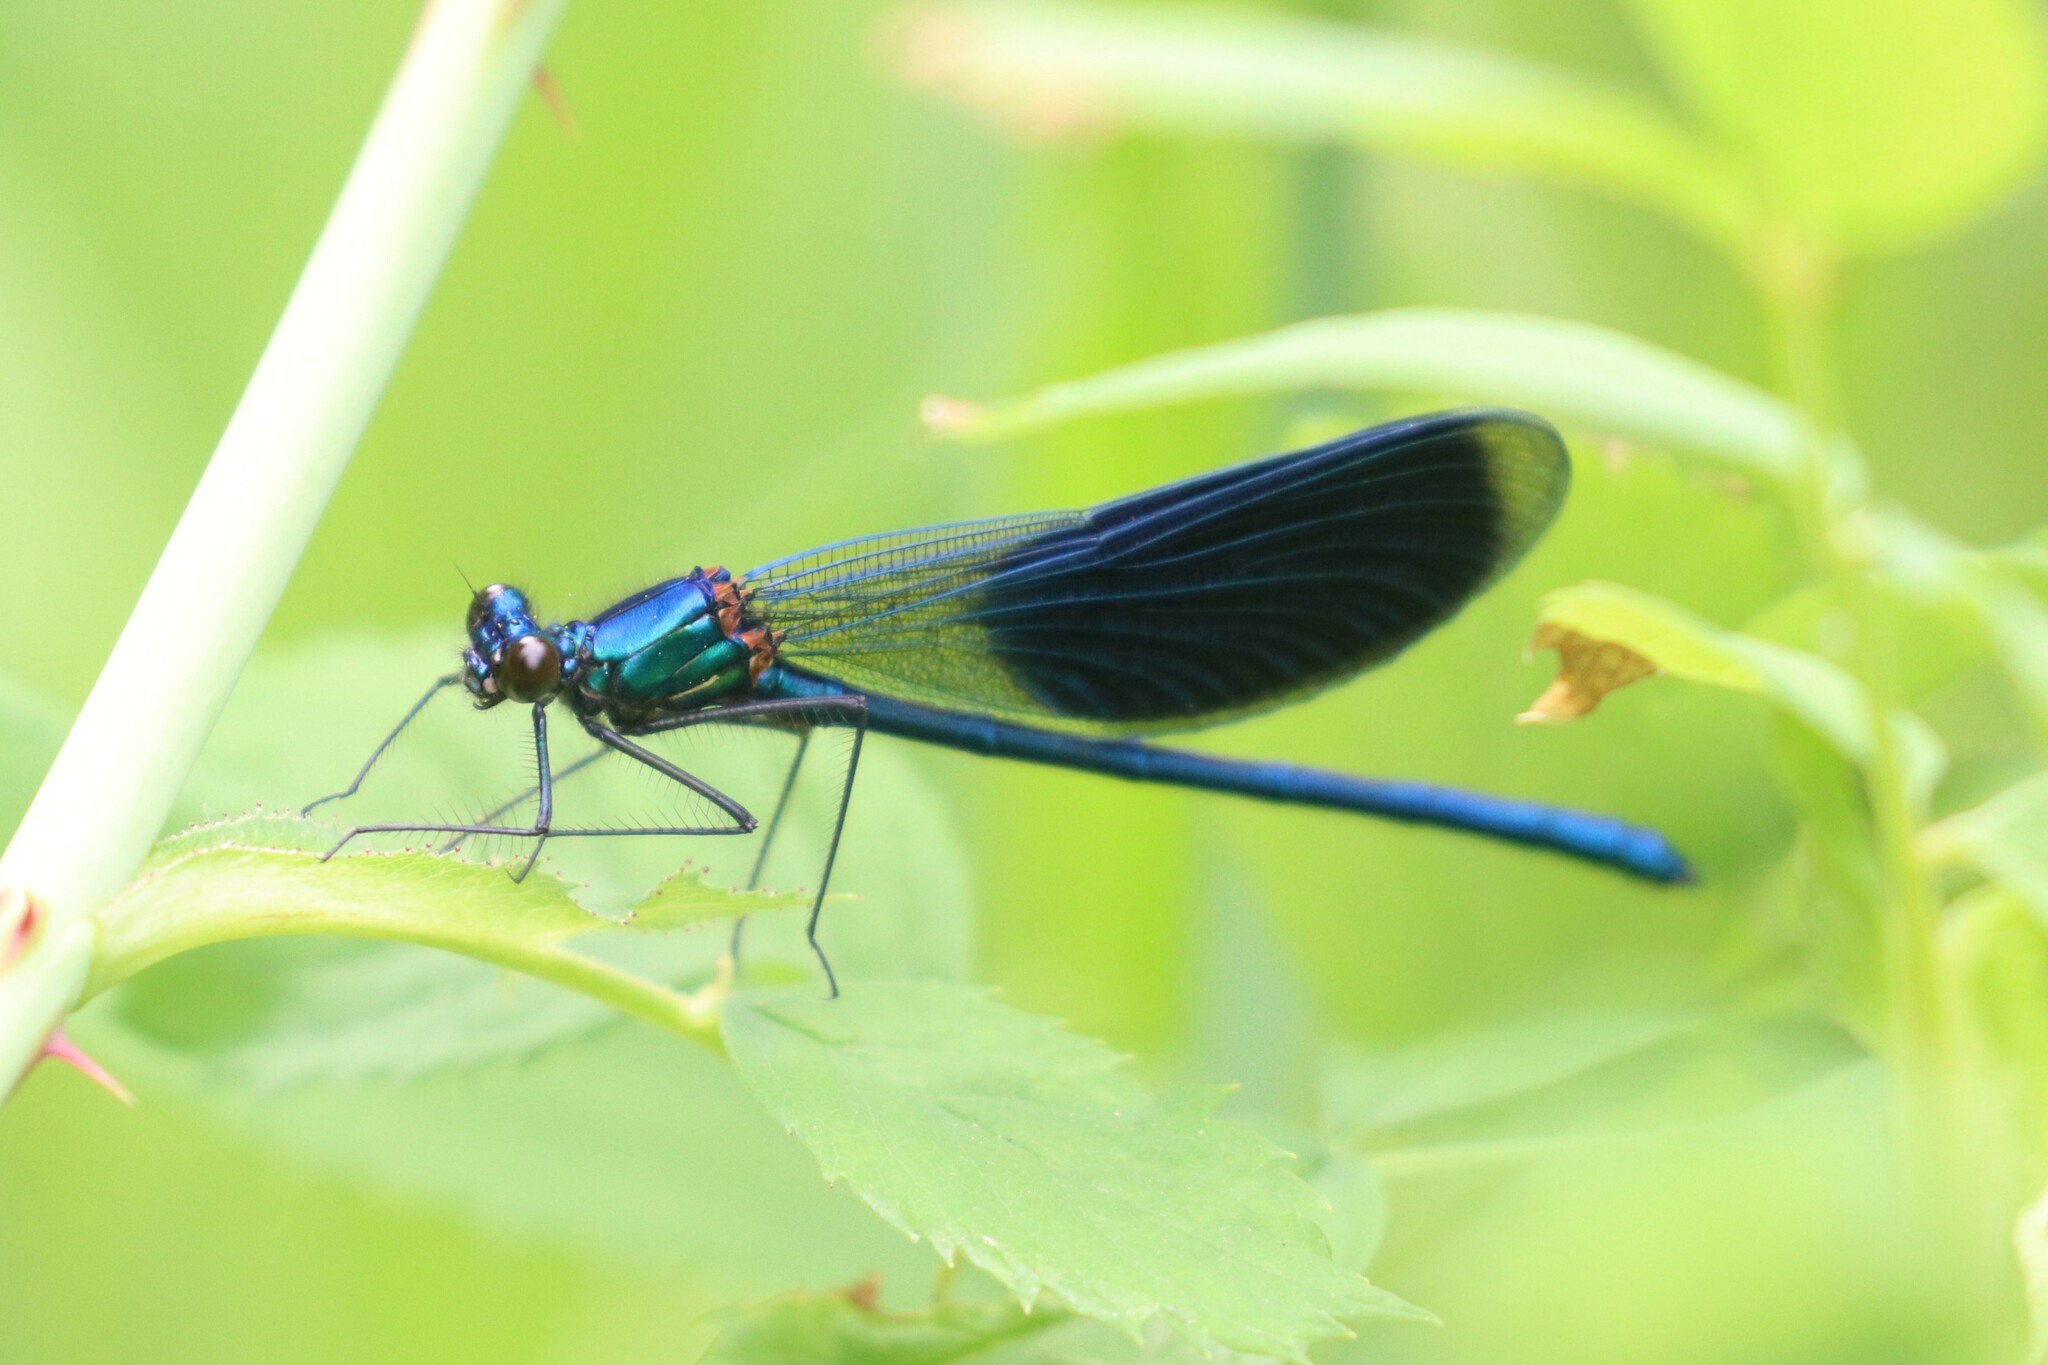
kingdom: Animalia
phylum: Arthropoda
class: Insecta
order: Odonata
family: Calopterygidae
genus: Calopteryx
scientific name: Calopteryx splendens
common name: Banded demoiselle
